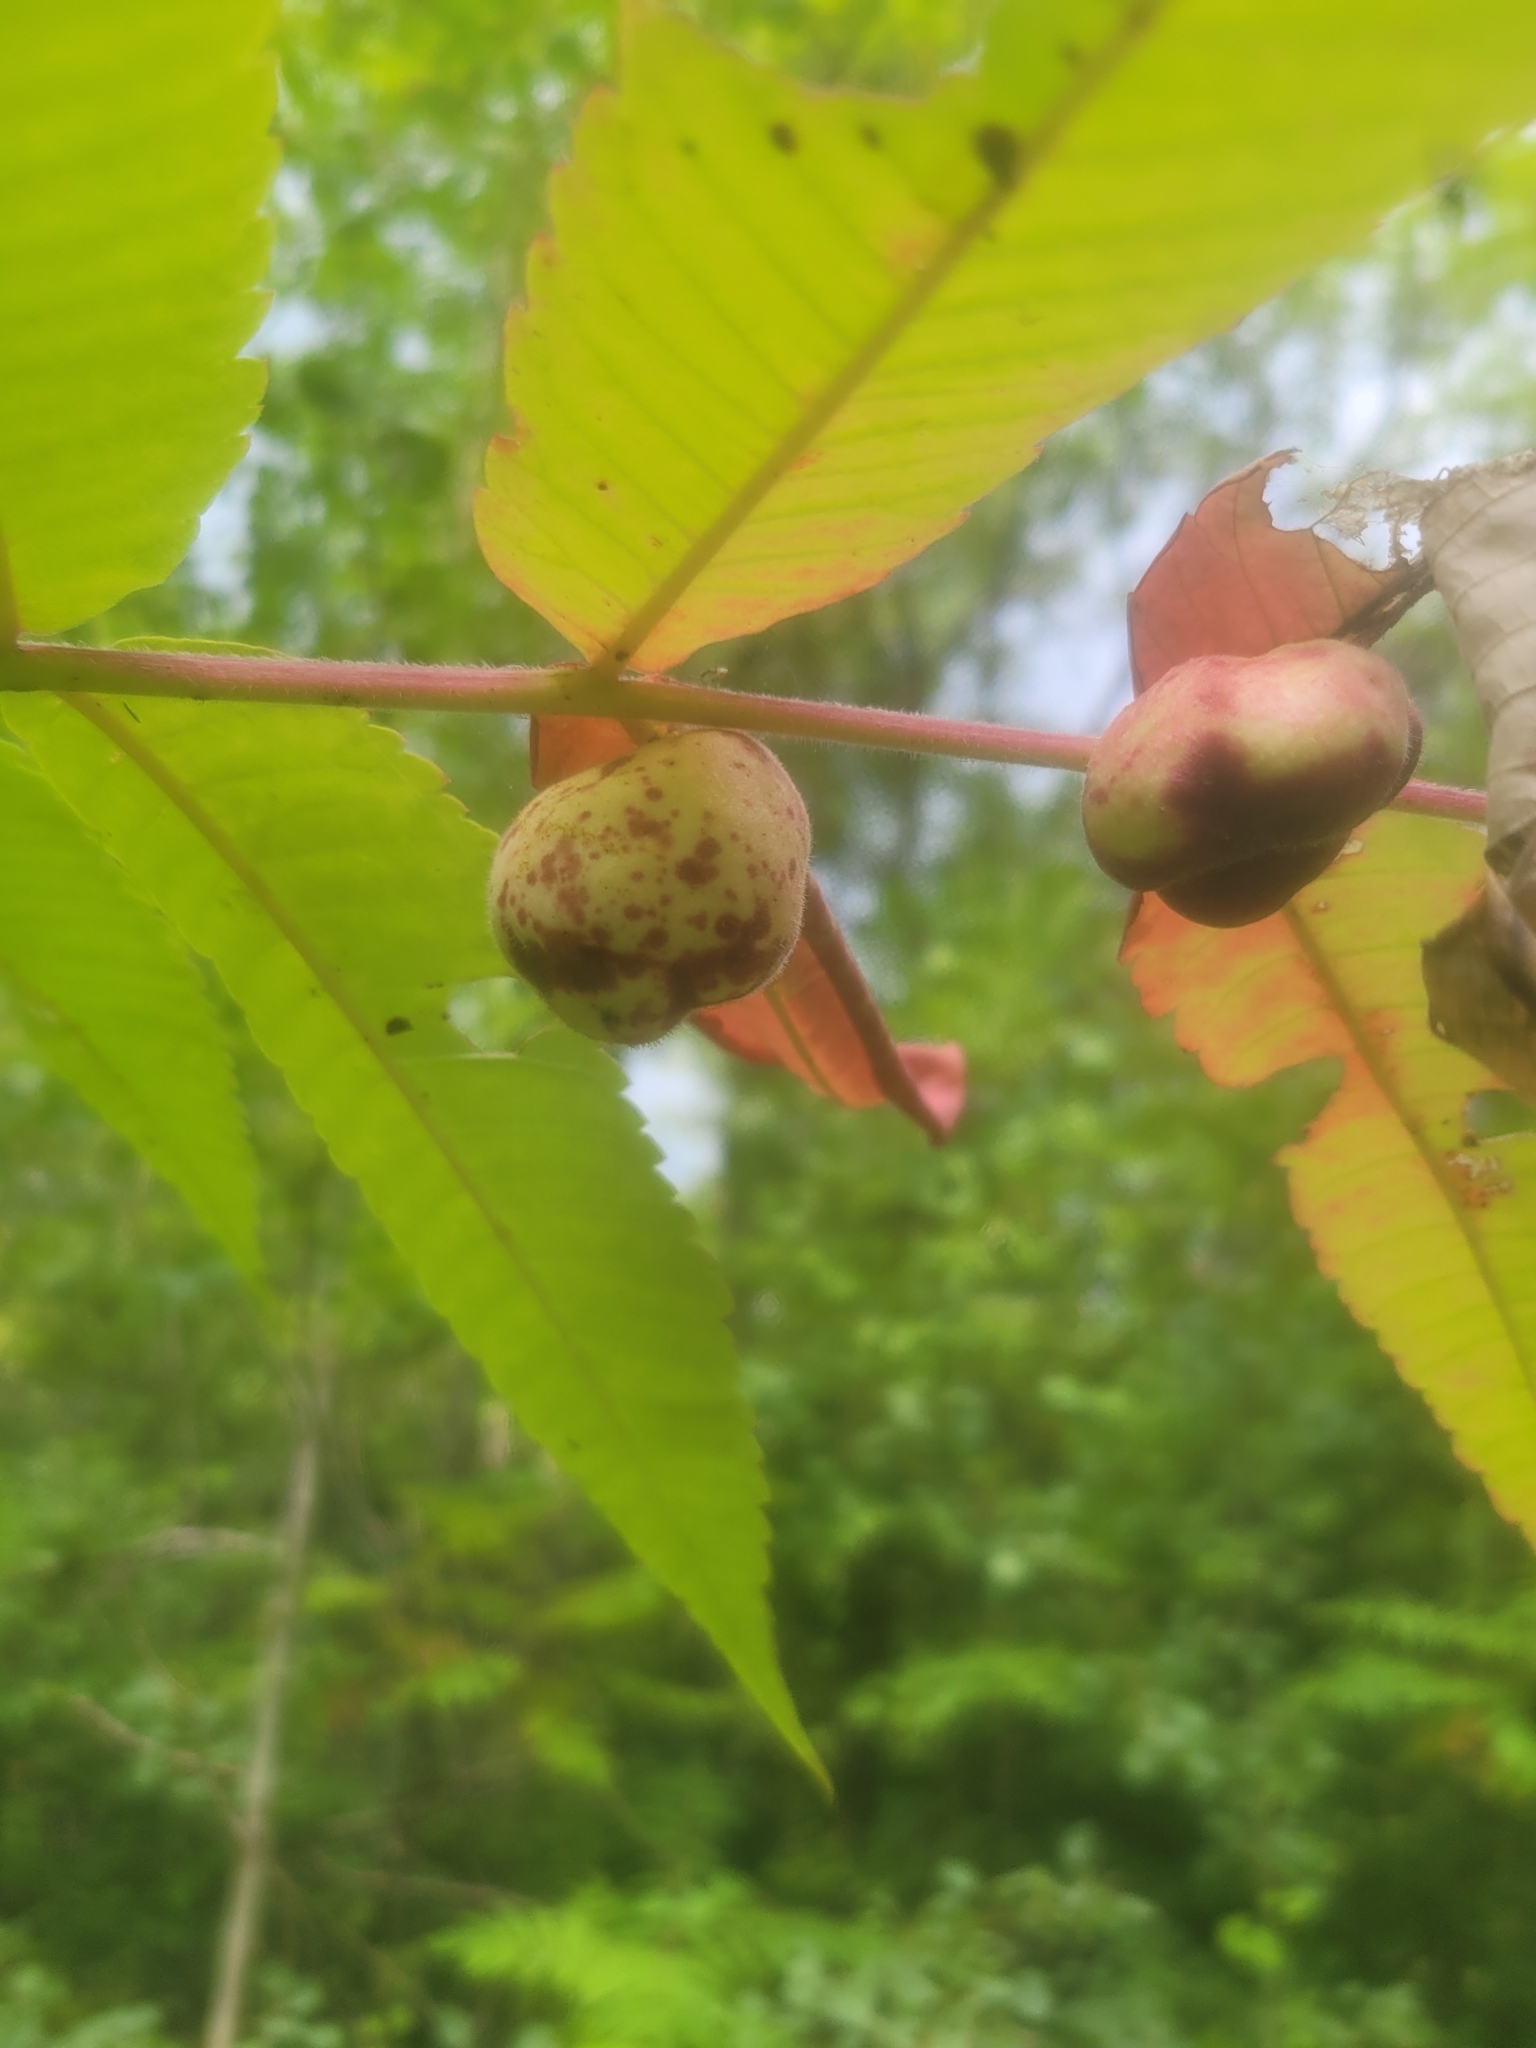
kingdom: Animalia
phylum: Arthropoda
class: Insecta
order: Hemiptera
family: Aphididae
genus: Melaphis
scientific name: Melaphis rhois
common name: Sumac gall aphid
